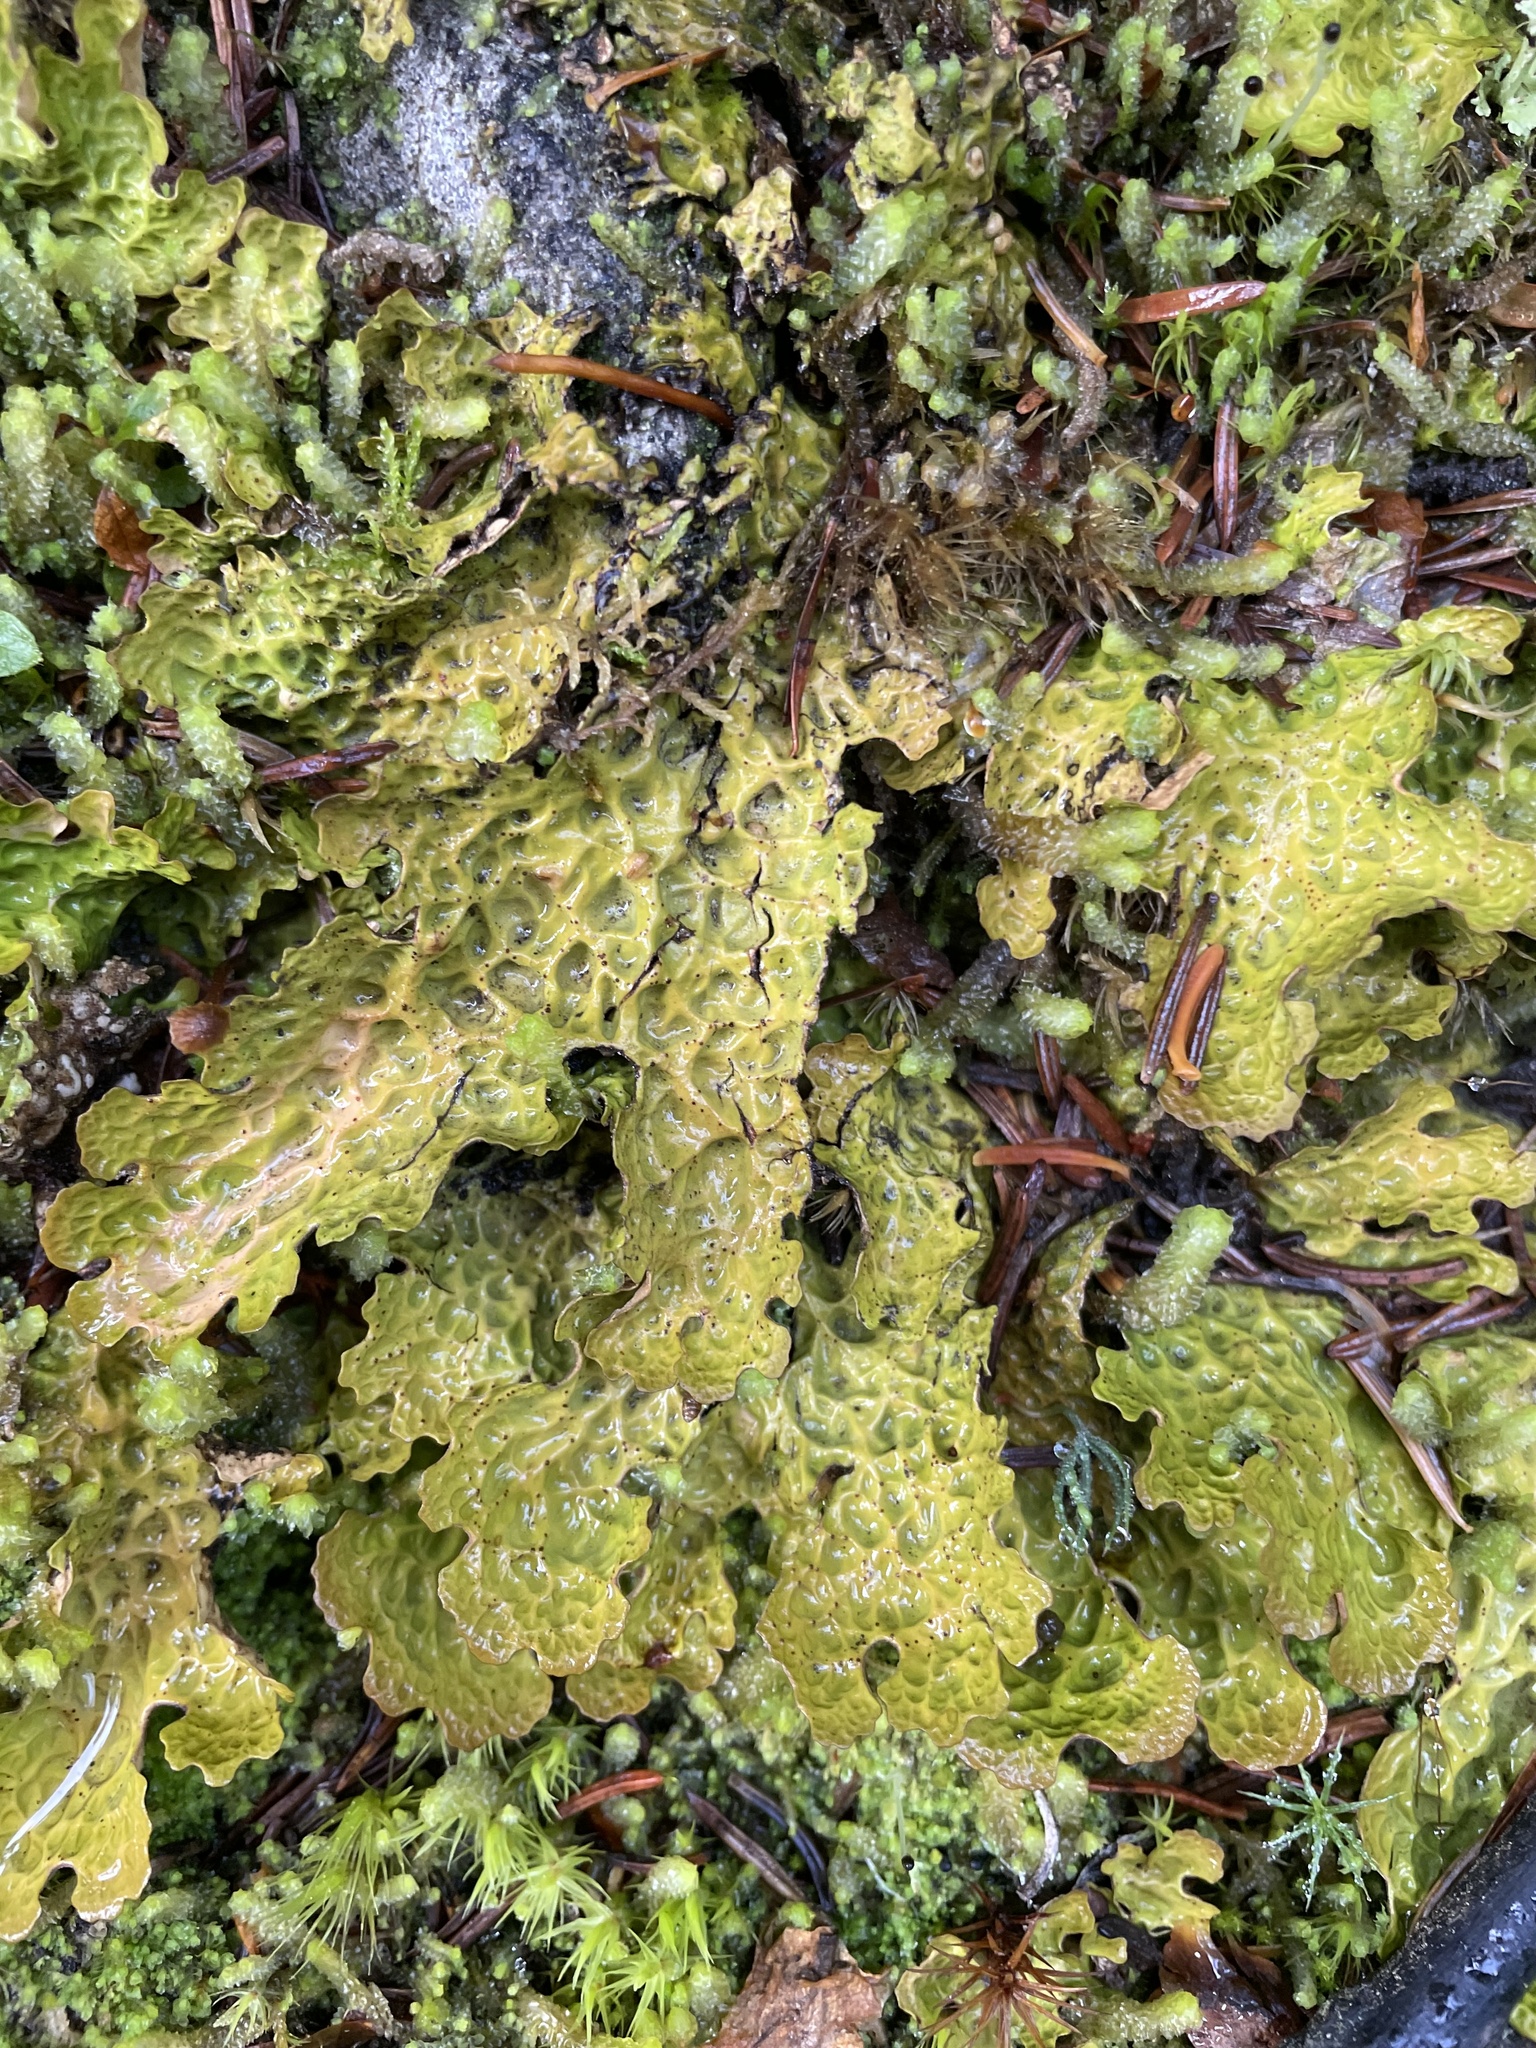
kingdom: Fungi
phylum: Ascomycota
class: Lecanoromycetes
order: Peltigerales
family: Lobariaceae
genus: Lobaria
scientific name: Lobaria linita
